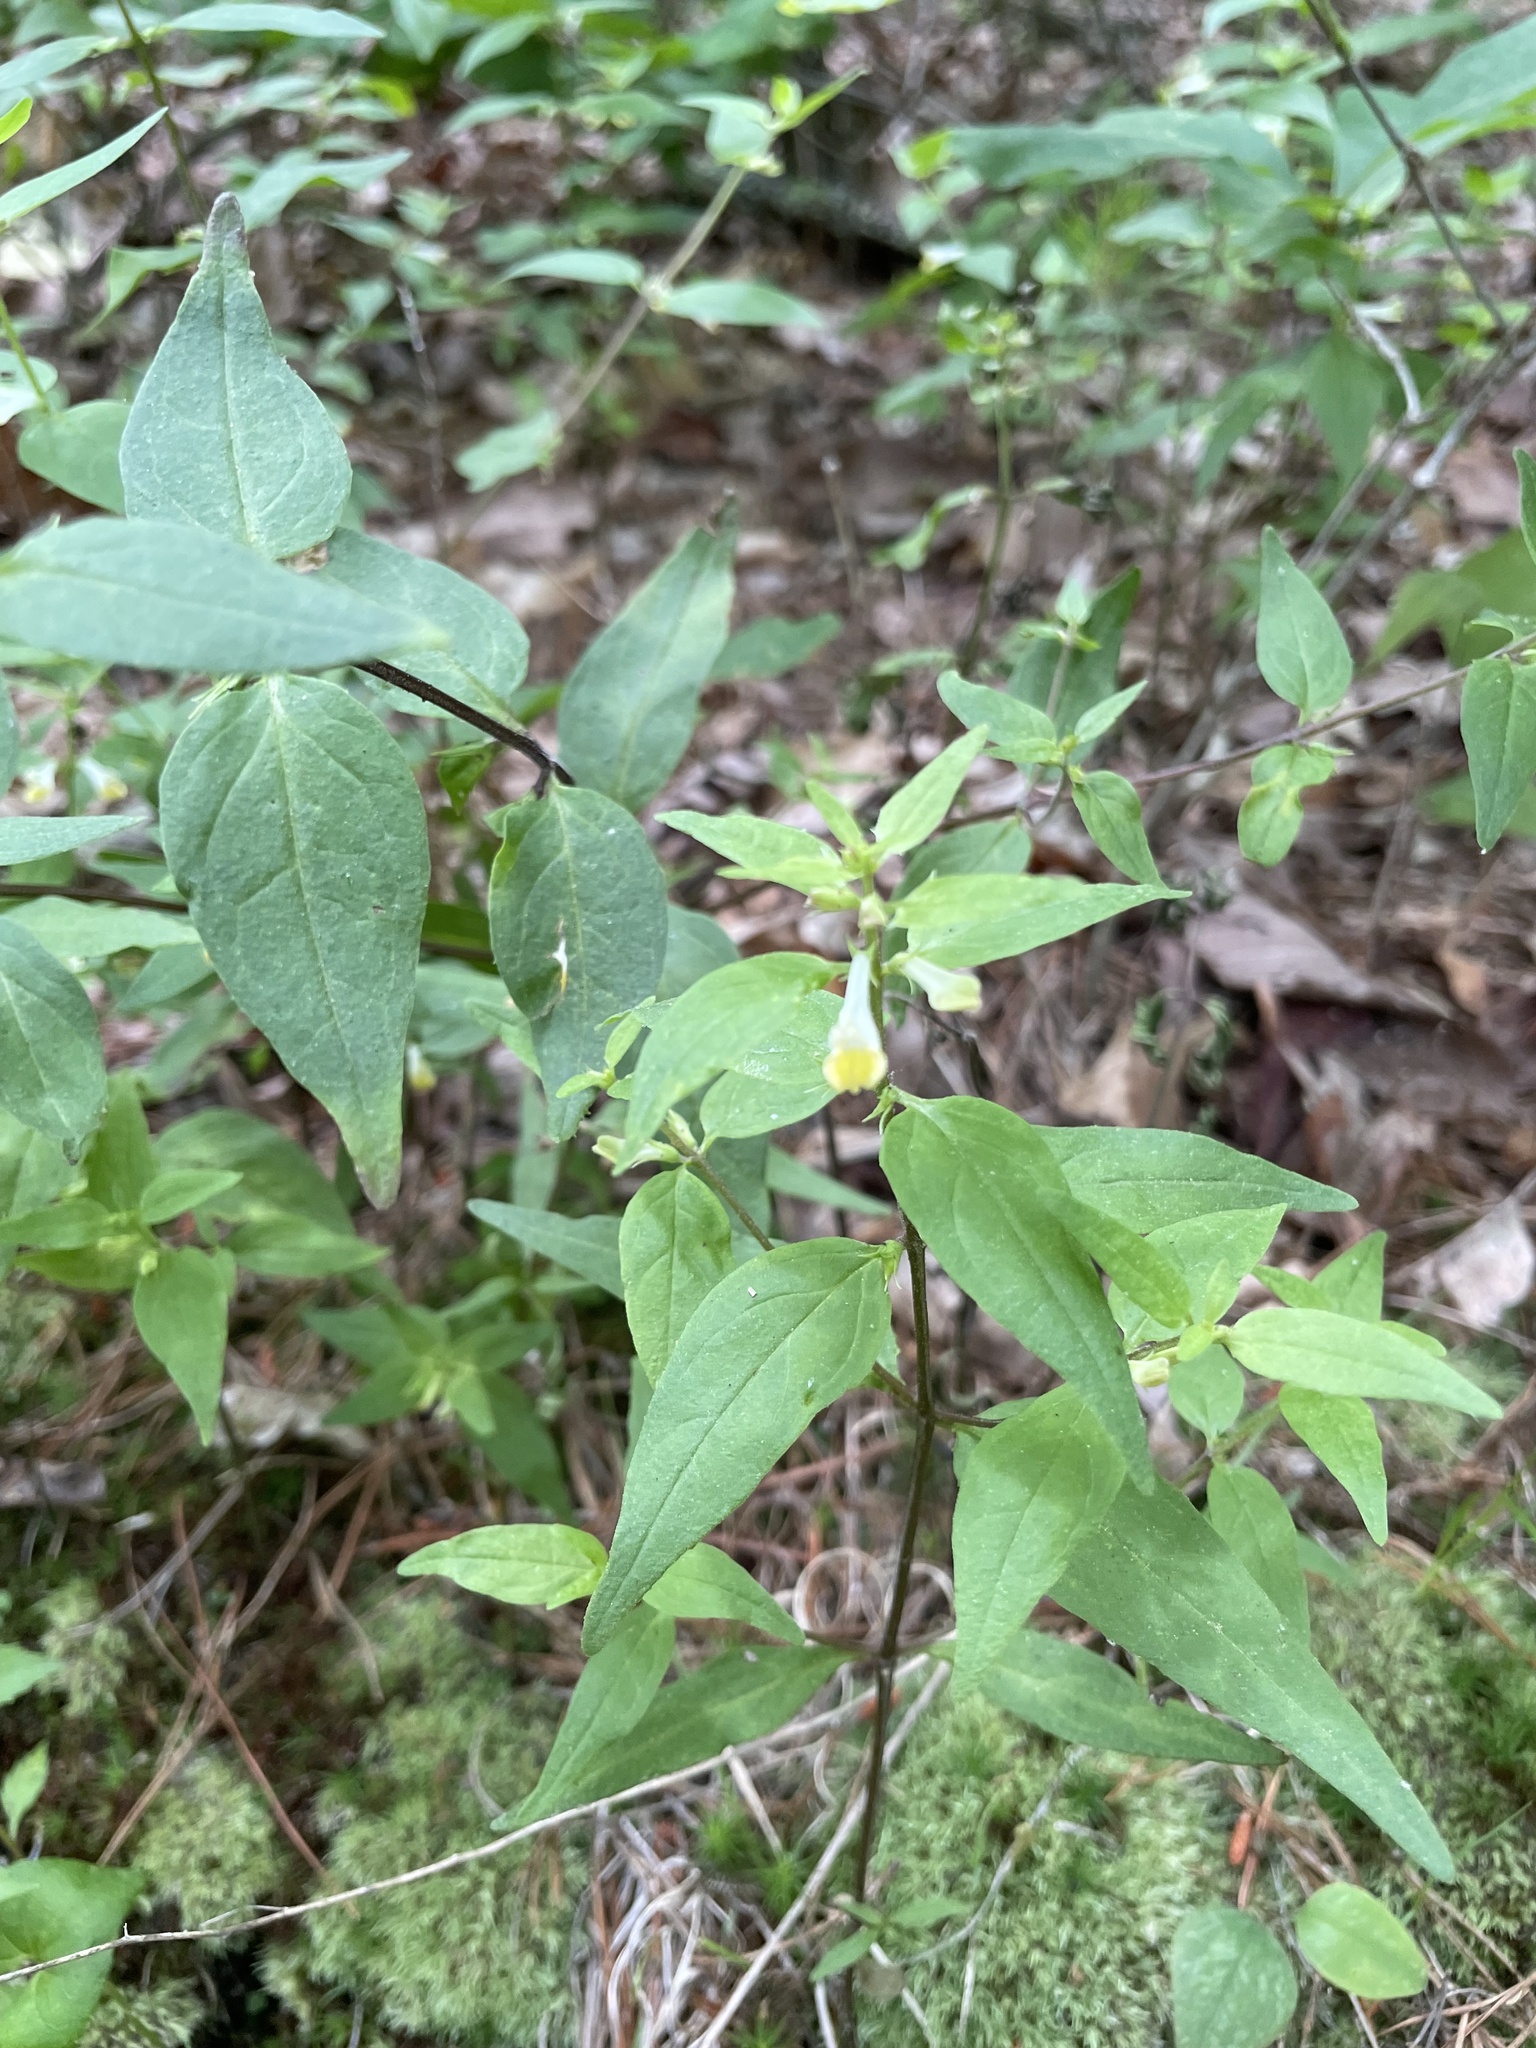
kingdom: Plantae
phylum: Tracheophyta
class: Magnoliopsida
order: Lamiales
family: Orobanchaceae
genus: Melampyrum
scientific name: Melampyrum lineare
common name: American cow-wheat
